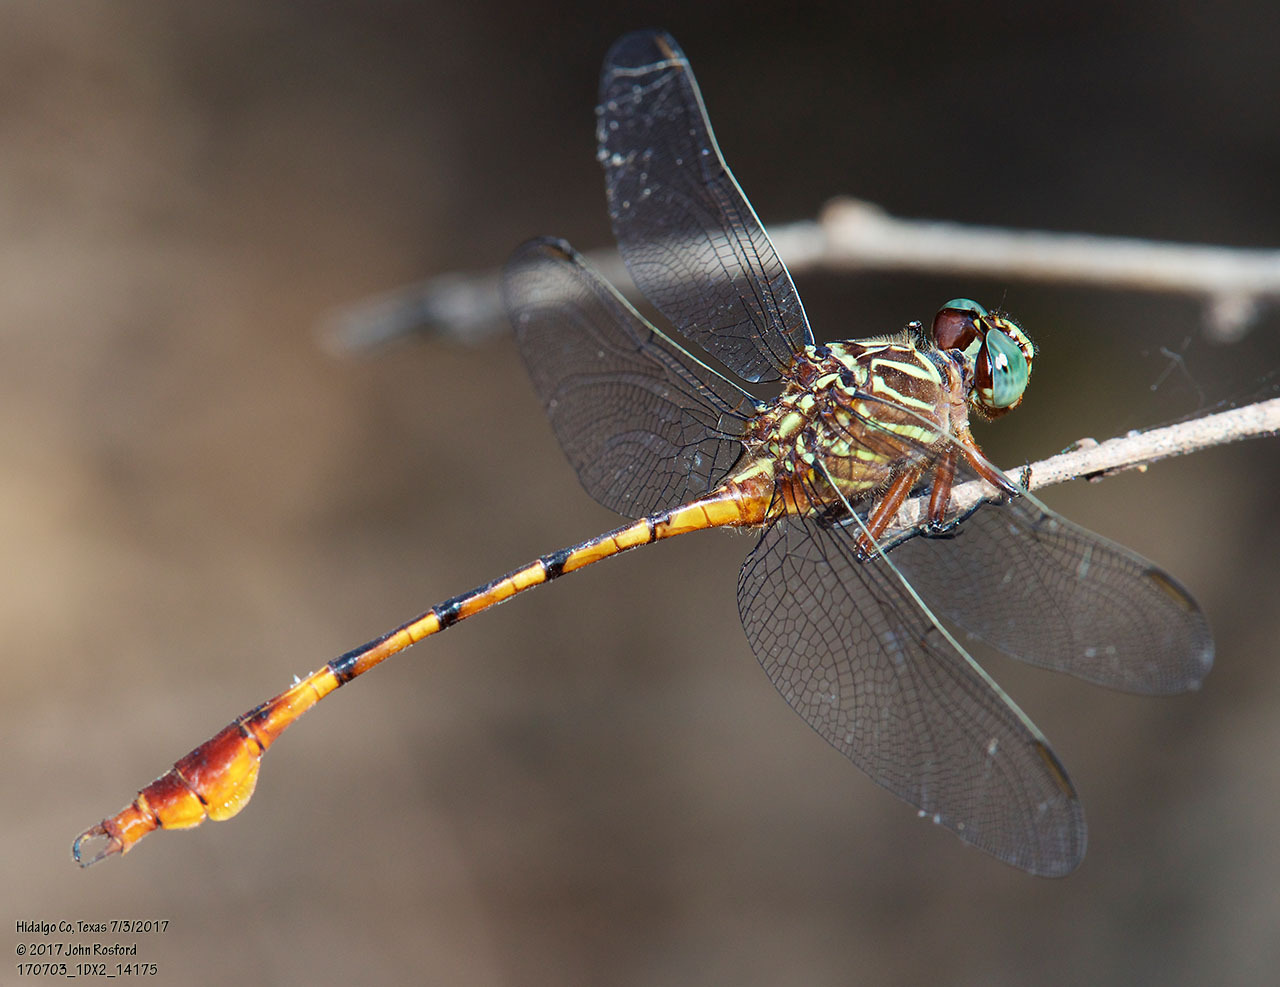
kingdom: Animalia
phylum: Arthropoda
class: Insecta
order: Odonata
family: Gomphidae
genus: Aphylla
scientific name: Aphylla protracta
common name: Narrow-striped forceptail
